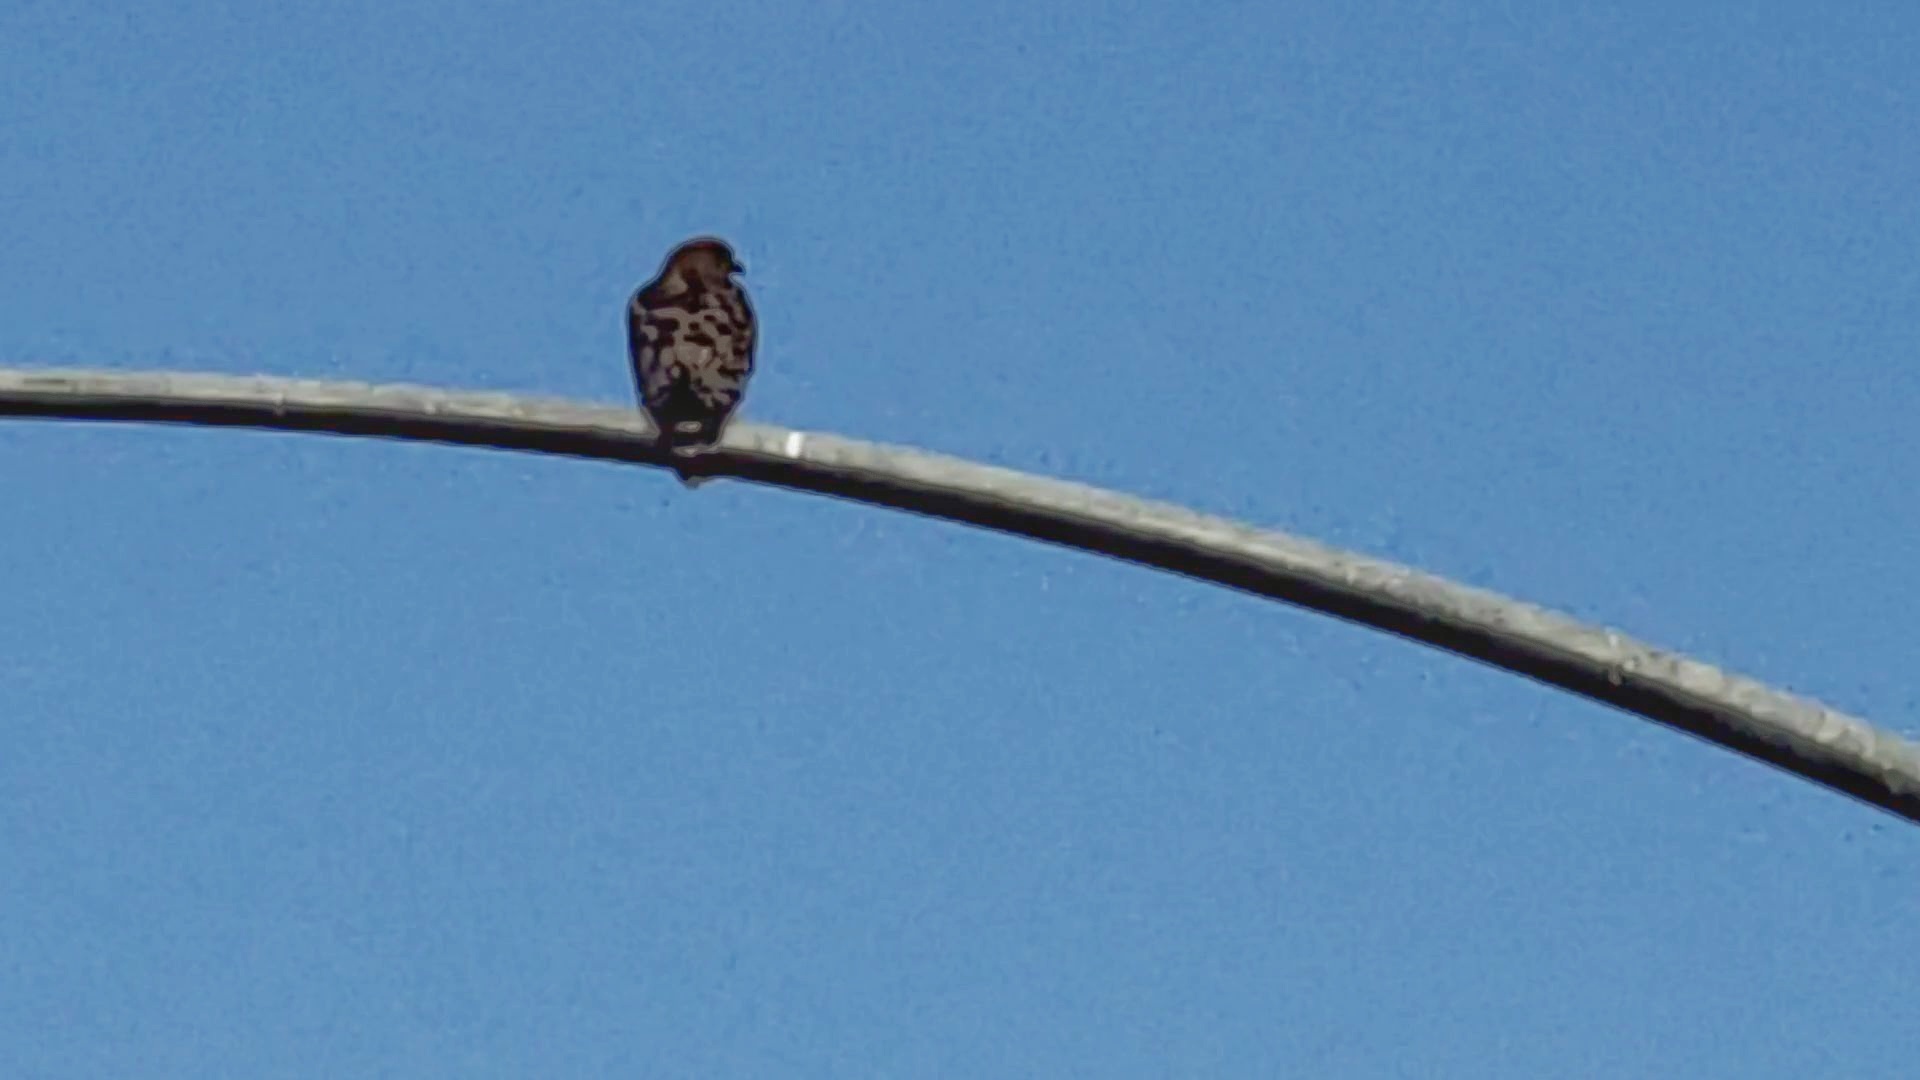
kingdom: Animalia
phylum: Chordata
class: Aves
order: Accipitriformes
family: Accipitridae
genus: Buteo
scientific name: Buteo lineatus
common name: Red-shouldered hawk
